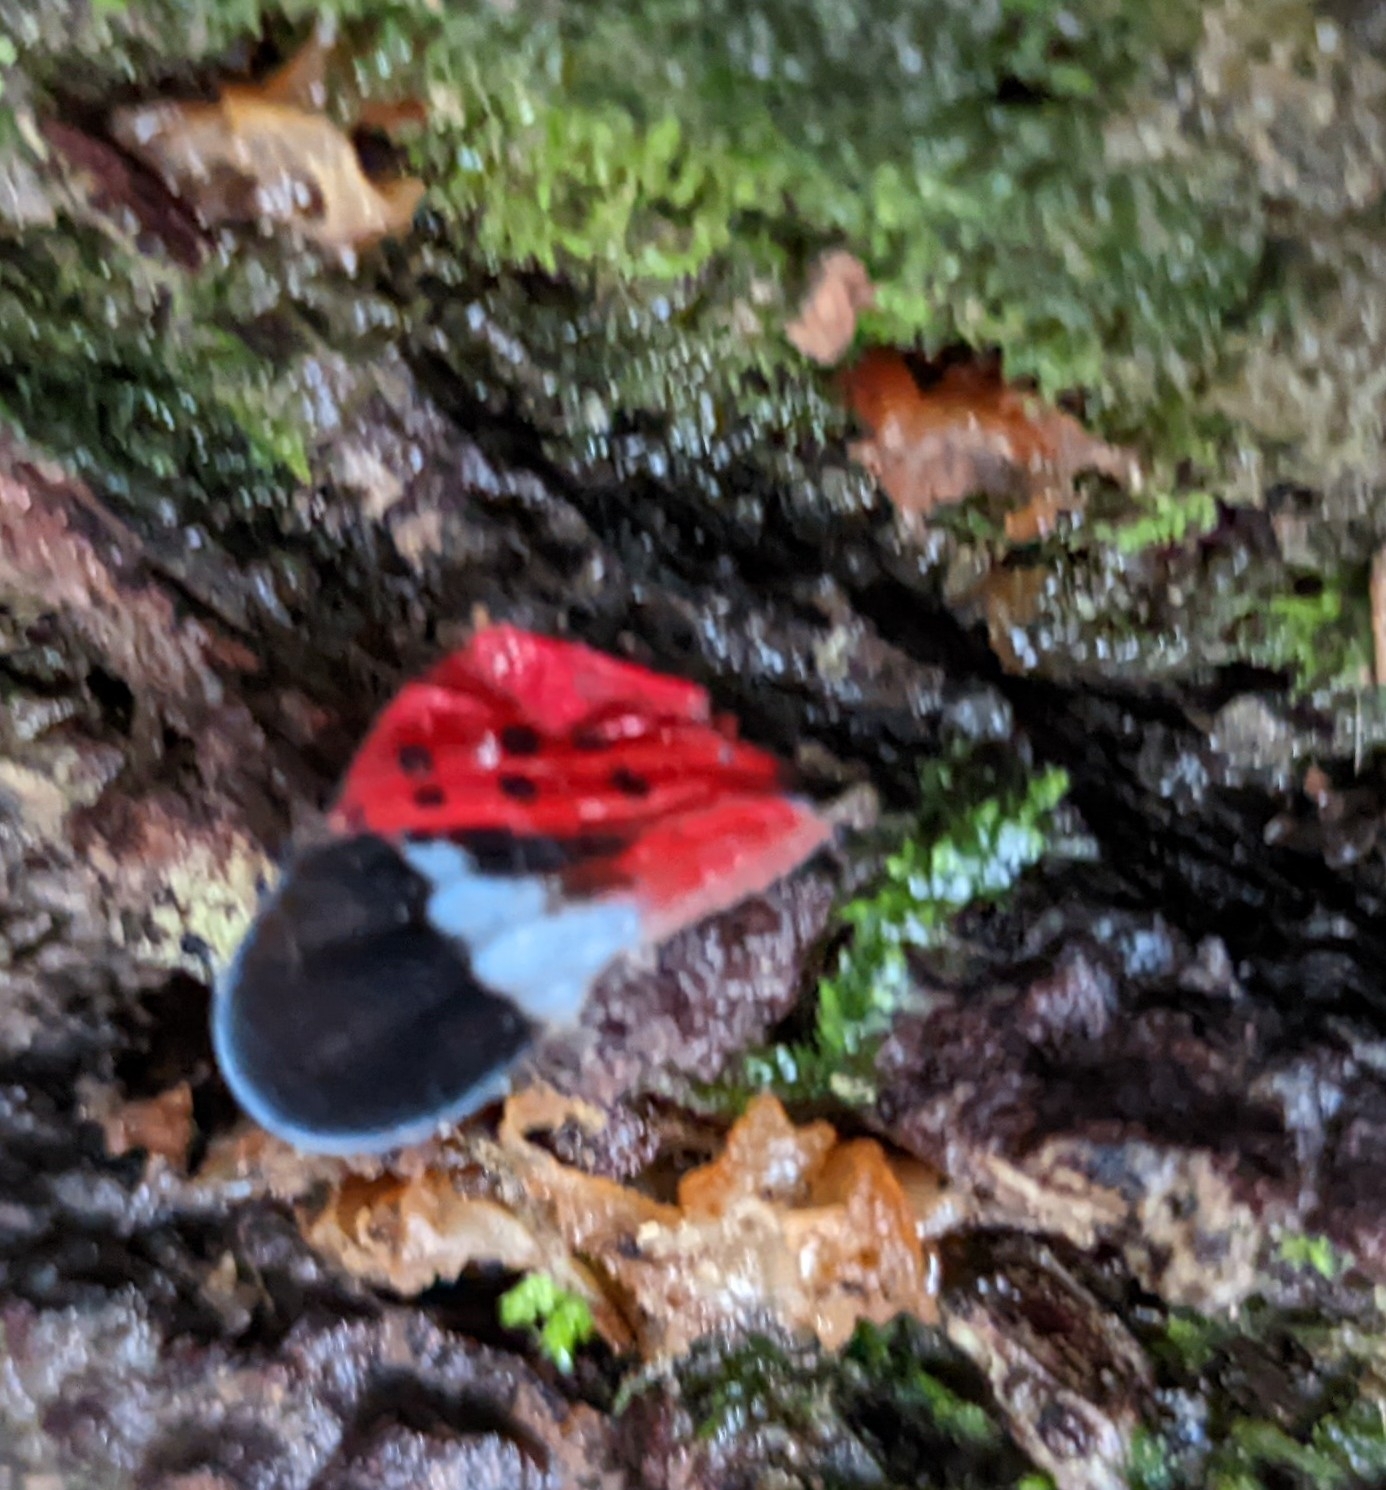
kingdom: Animalia
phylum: Arthropoda
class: Insecta
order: Hemiptera
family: Fulgoridae
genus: Lycorma
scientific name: Lycorma delicatula
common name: Spotted lanternfly
